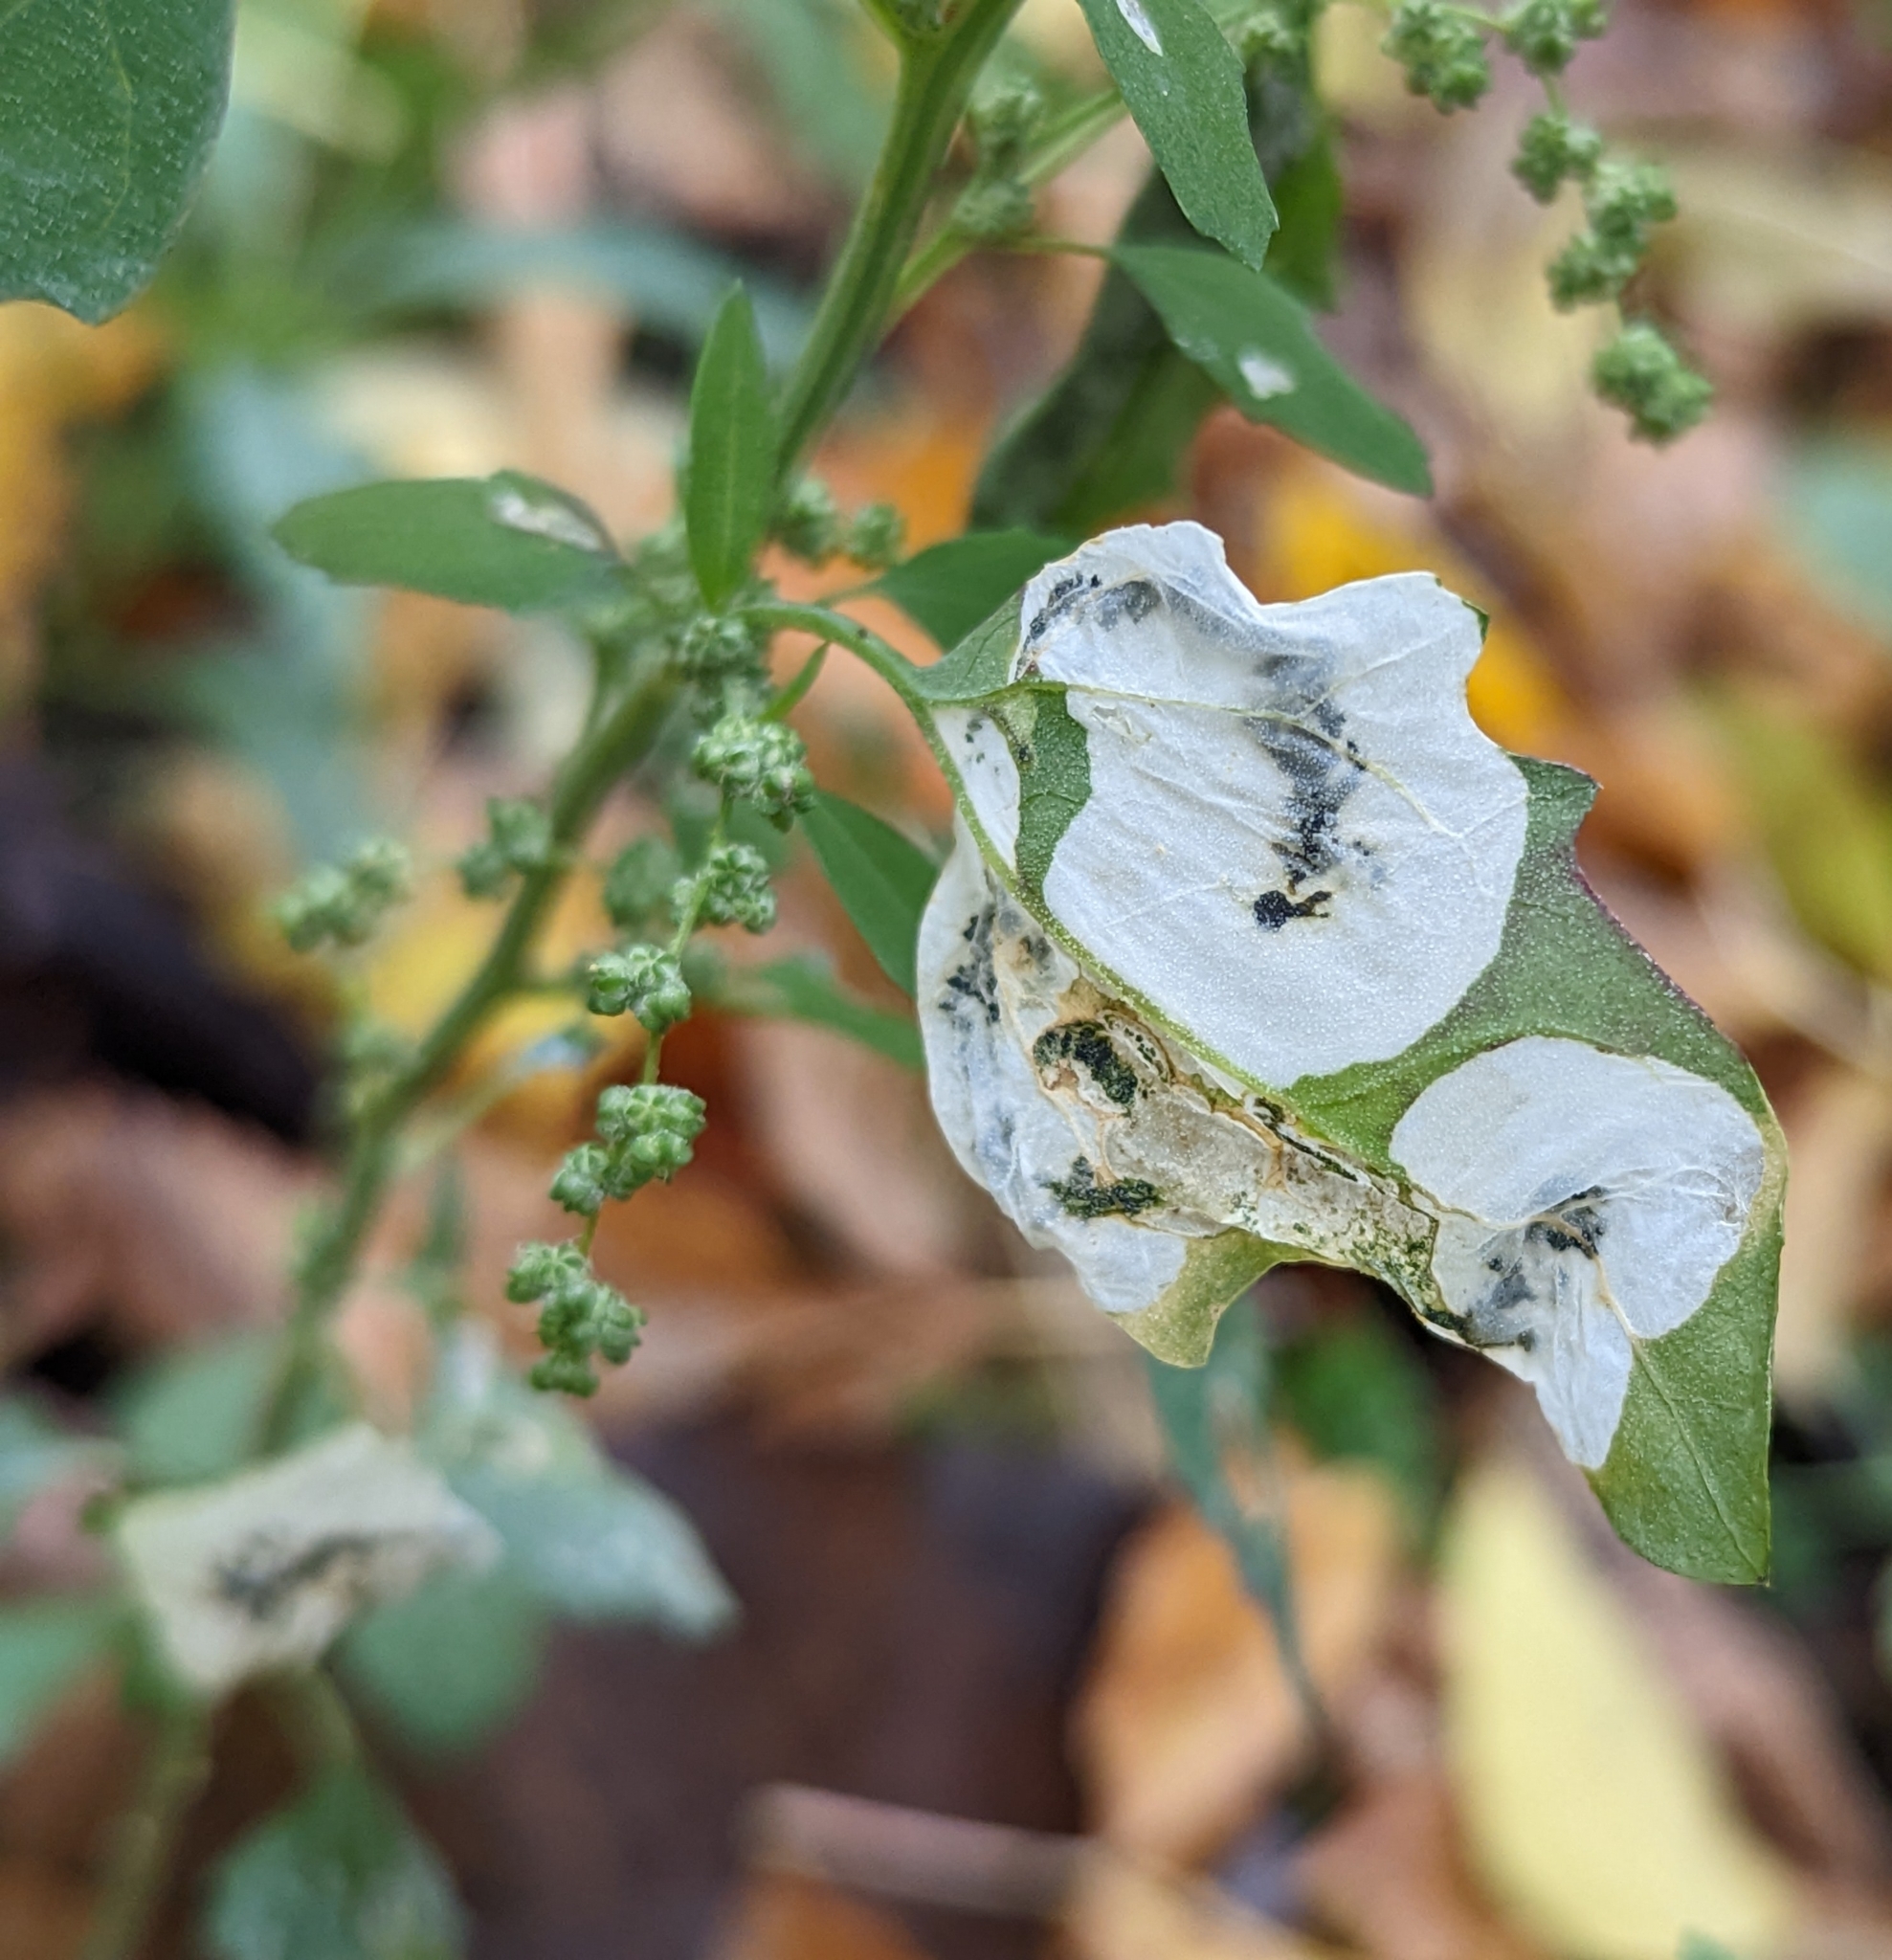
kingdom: Animalia
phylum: Arthropoda
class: Insecta
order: Lepidoptera
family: Gelechiidae
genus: Chrysoesthia
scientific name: Chrysoesthia sexguttella
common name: Moth
